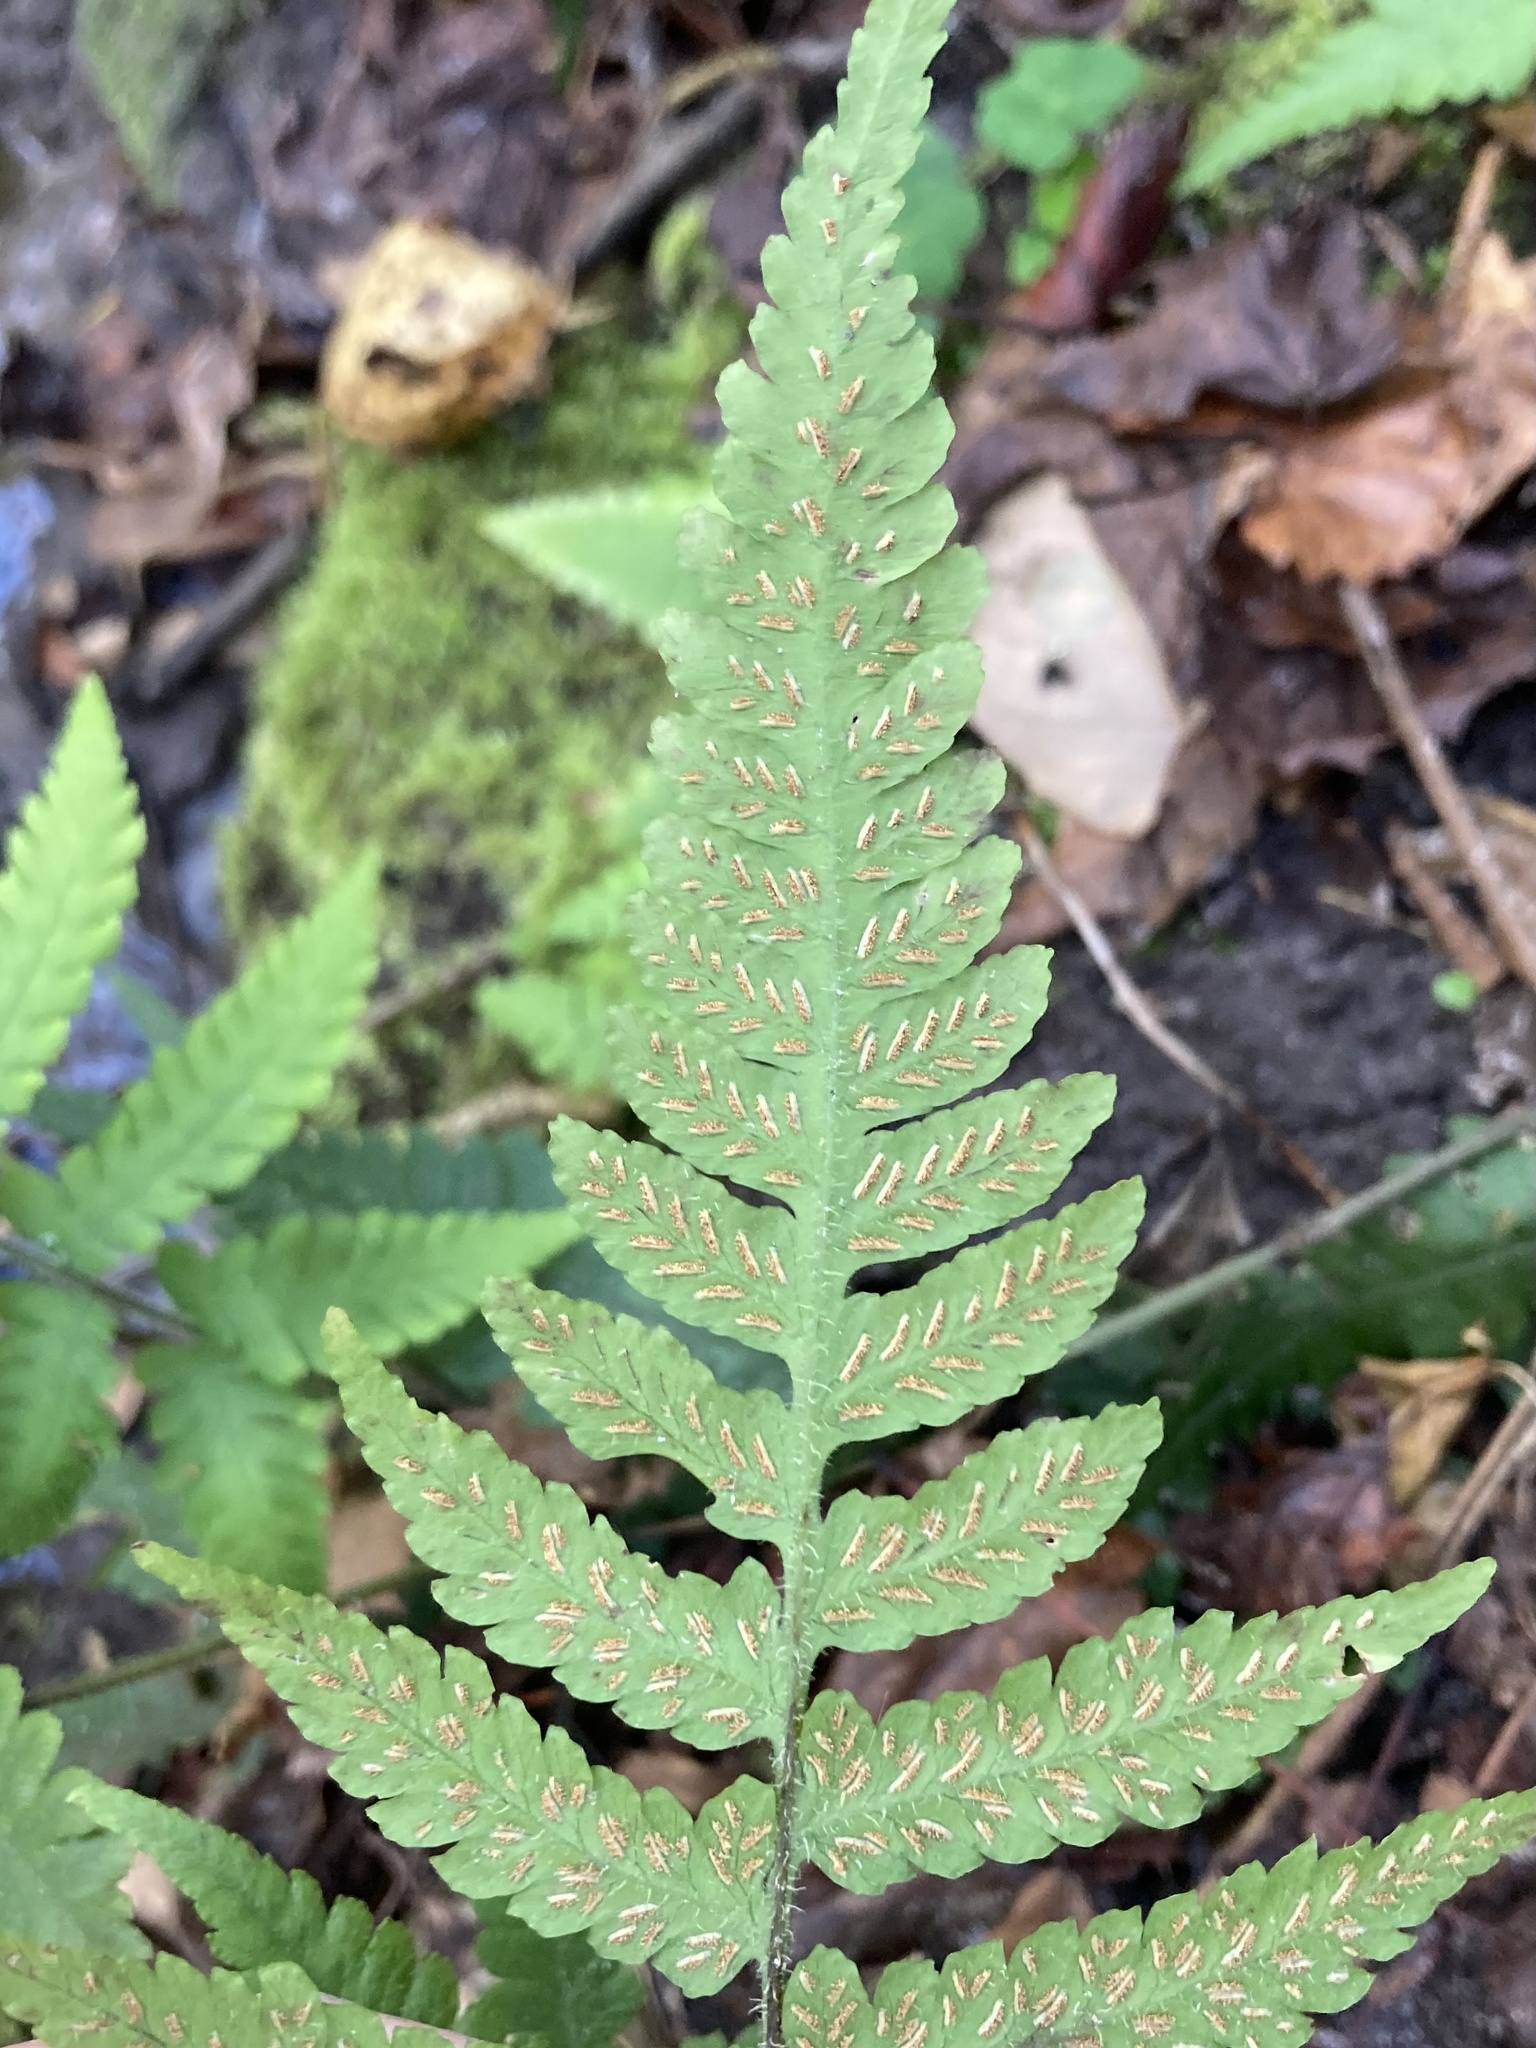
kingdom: Plantae
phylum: Tracheophyta
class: Polypodiopsida
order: Polypodiales
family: Athyriaceae
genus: Deparia
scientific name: Deparia petersenii
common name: Japanese false spleenwort
